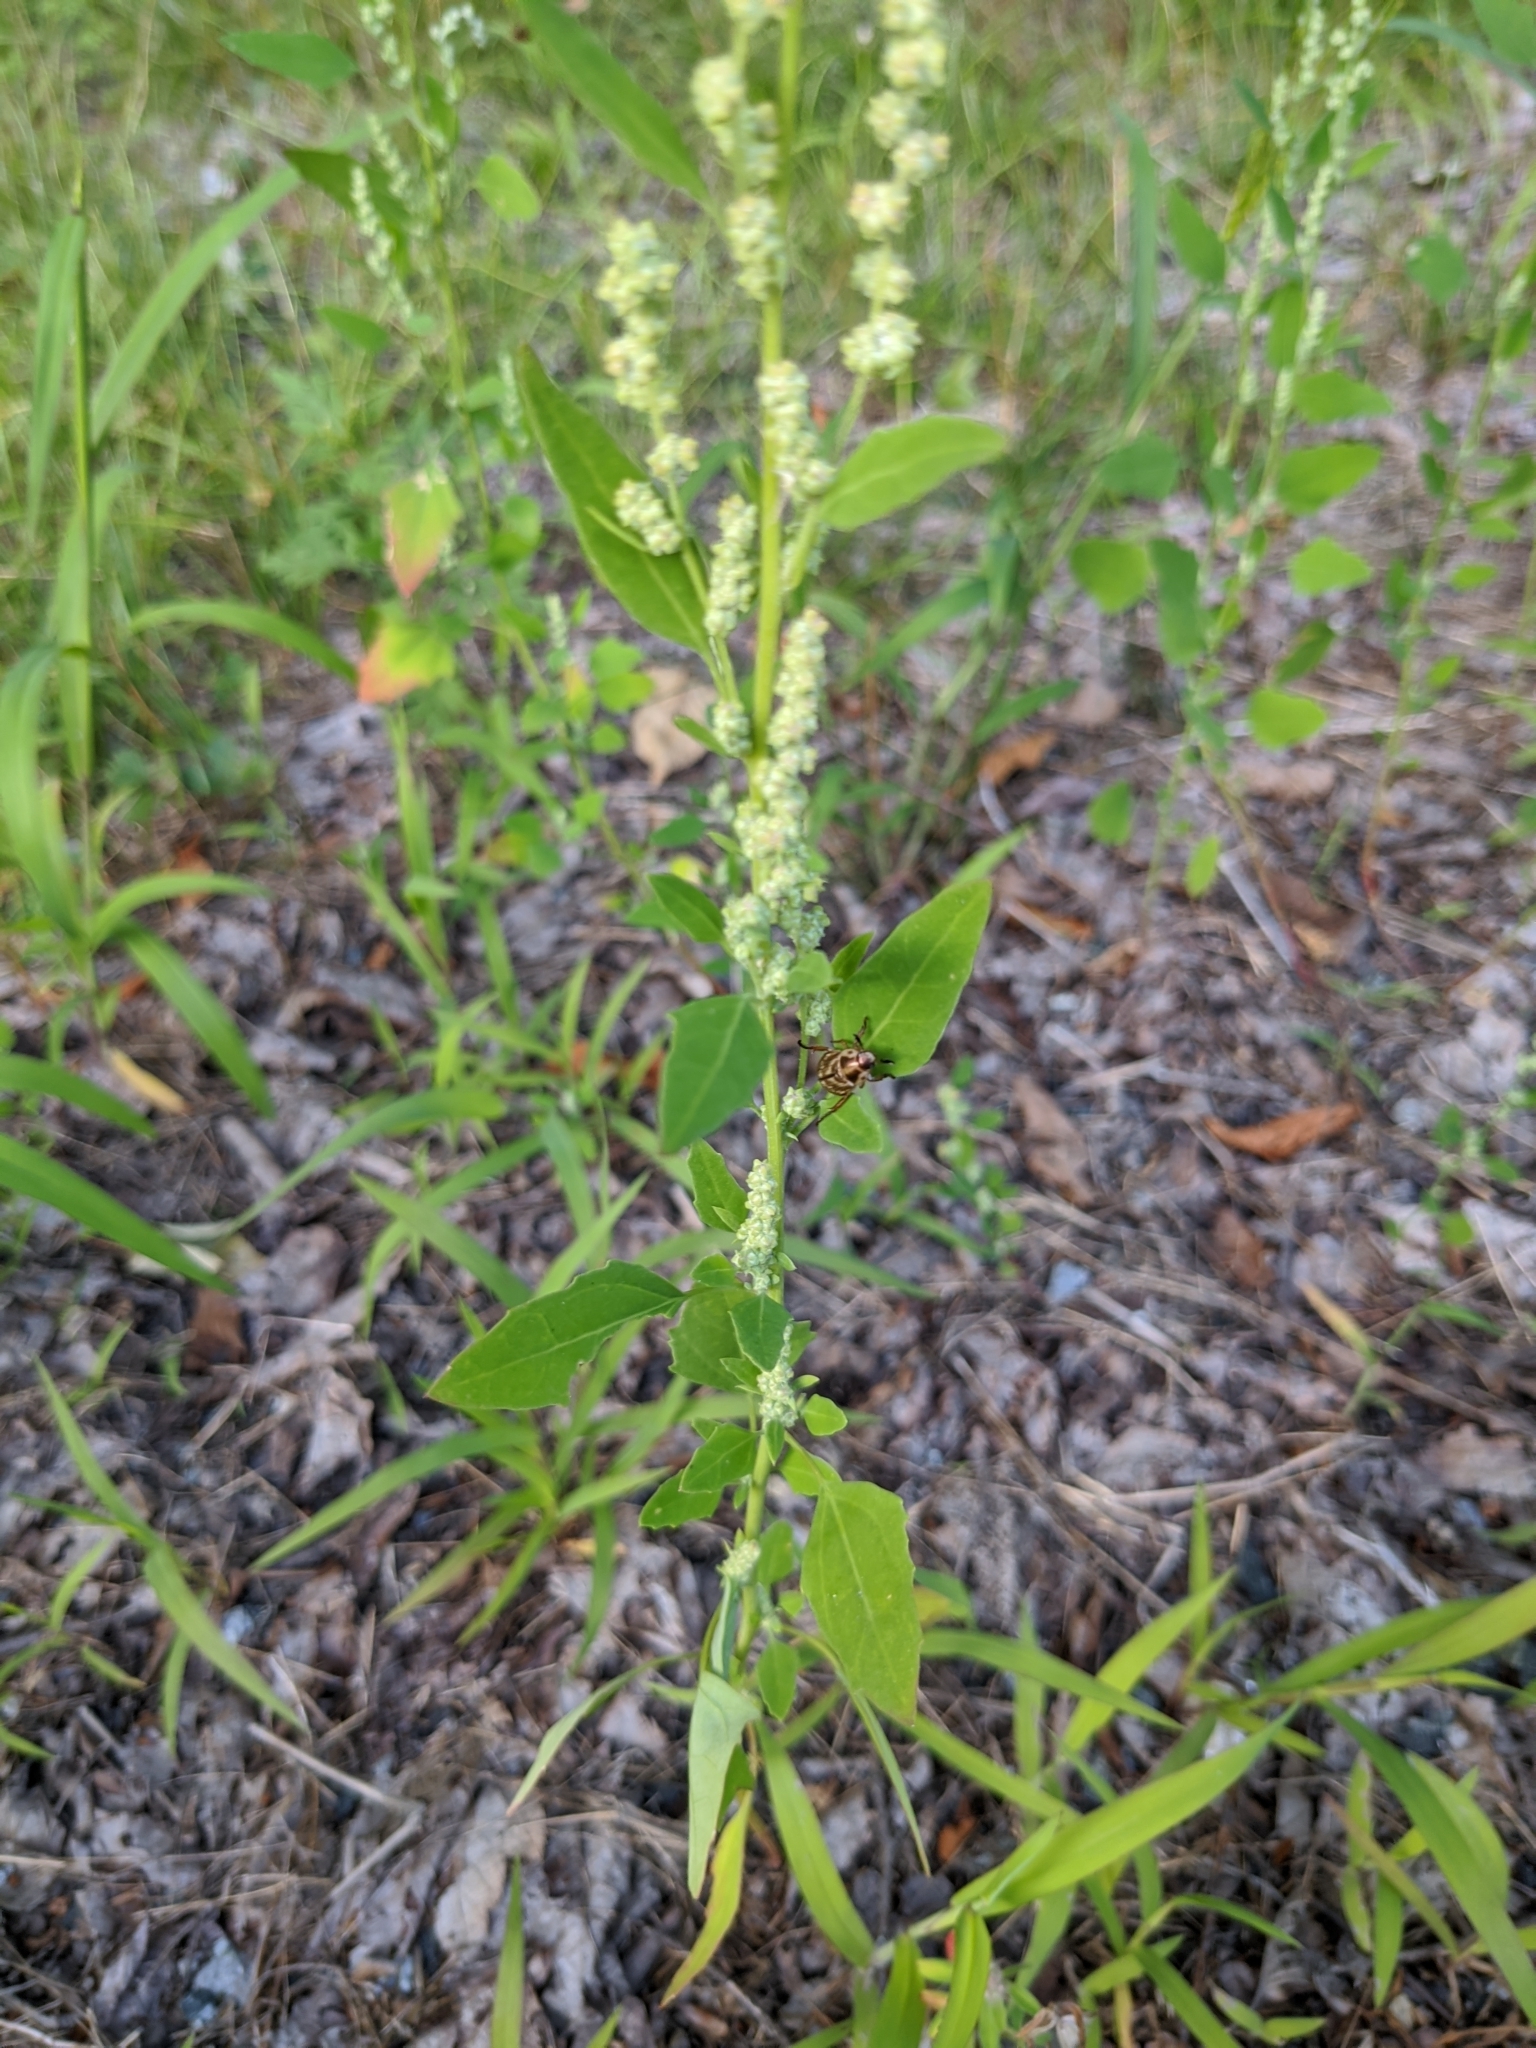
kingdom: Plantae
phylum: Tracheophyta
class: Magnoliopsida
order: Caryophyllales
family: Amaranthaceae
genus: Chenopodium
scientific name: Chenopodium album
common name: Fat-hen
